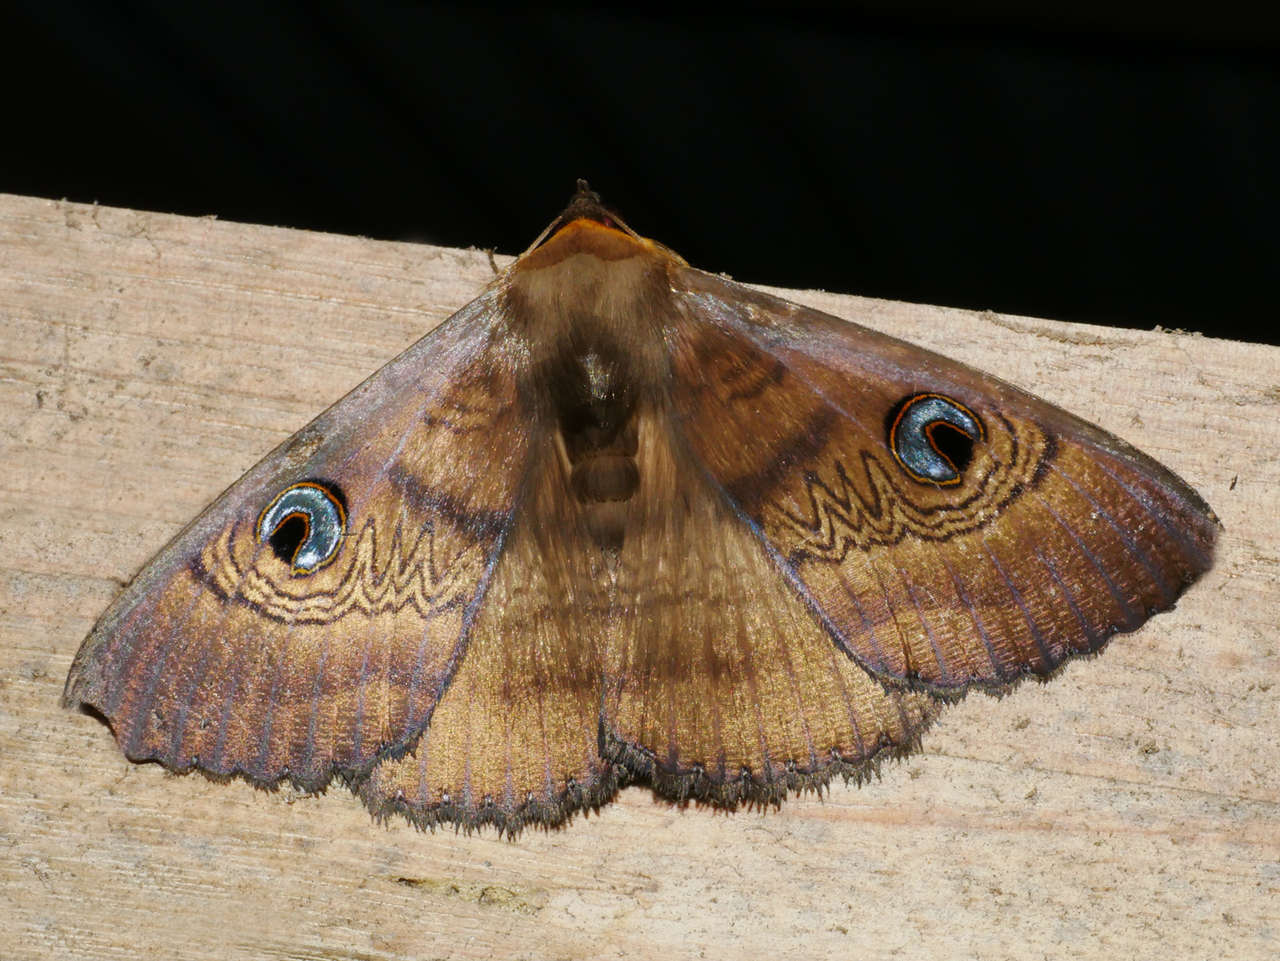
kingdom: Animalia
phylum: Arthropoda
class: Insecta
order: Lepidoptera
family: Erebidae
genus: Dasypodia
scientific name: Dasypodia selenophora
